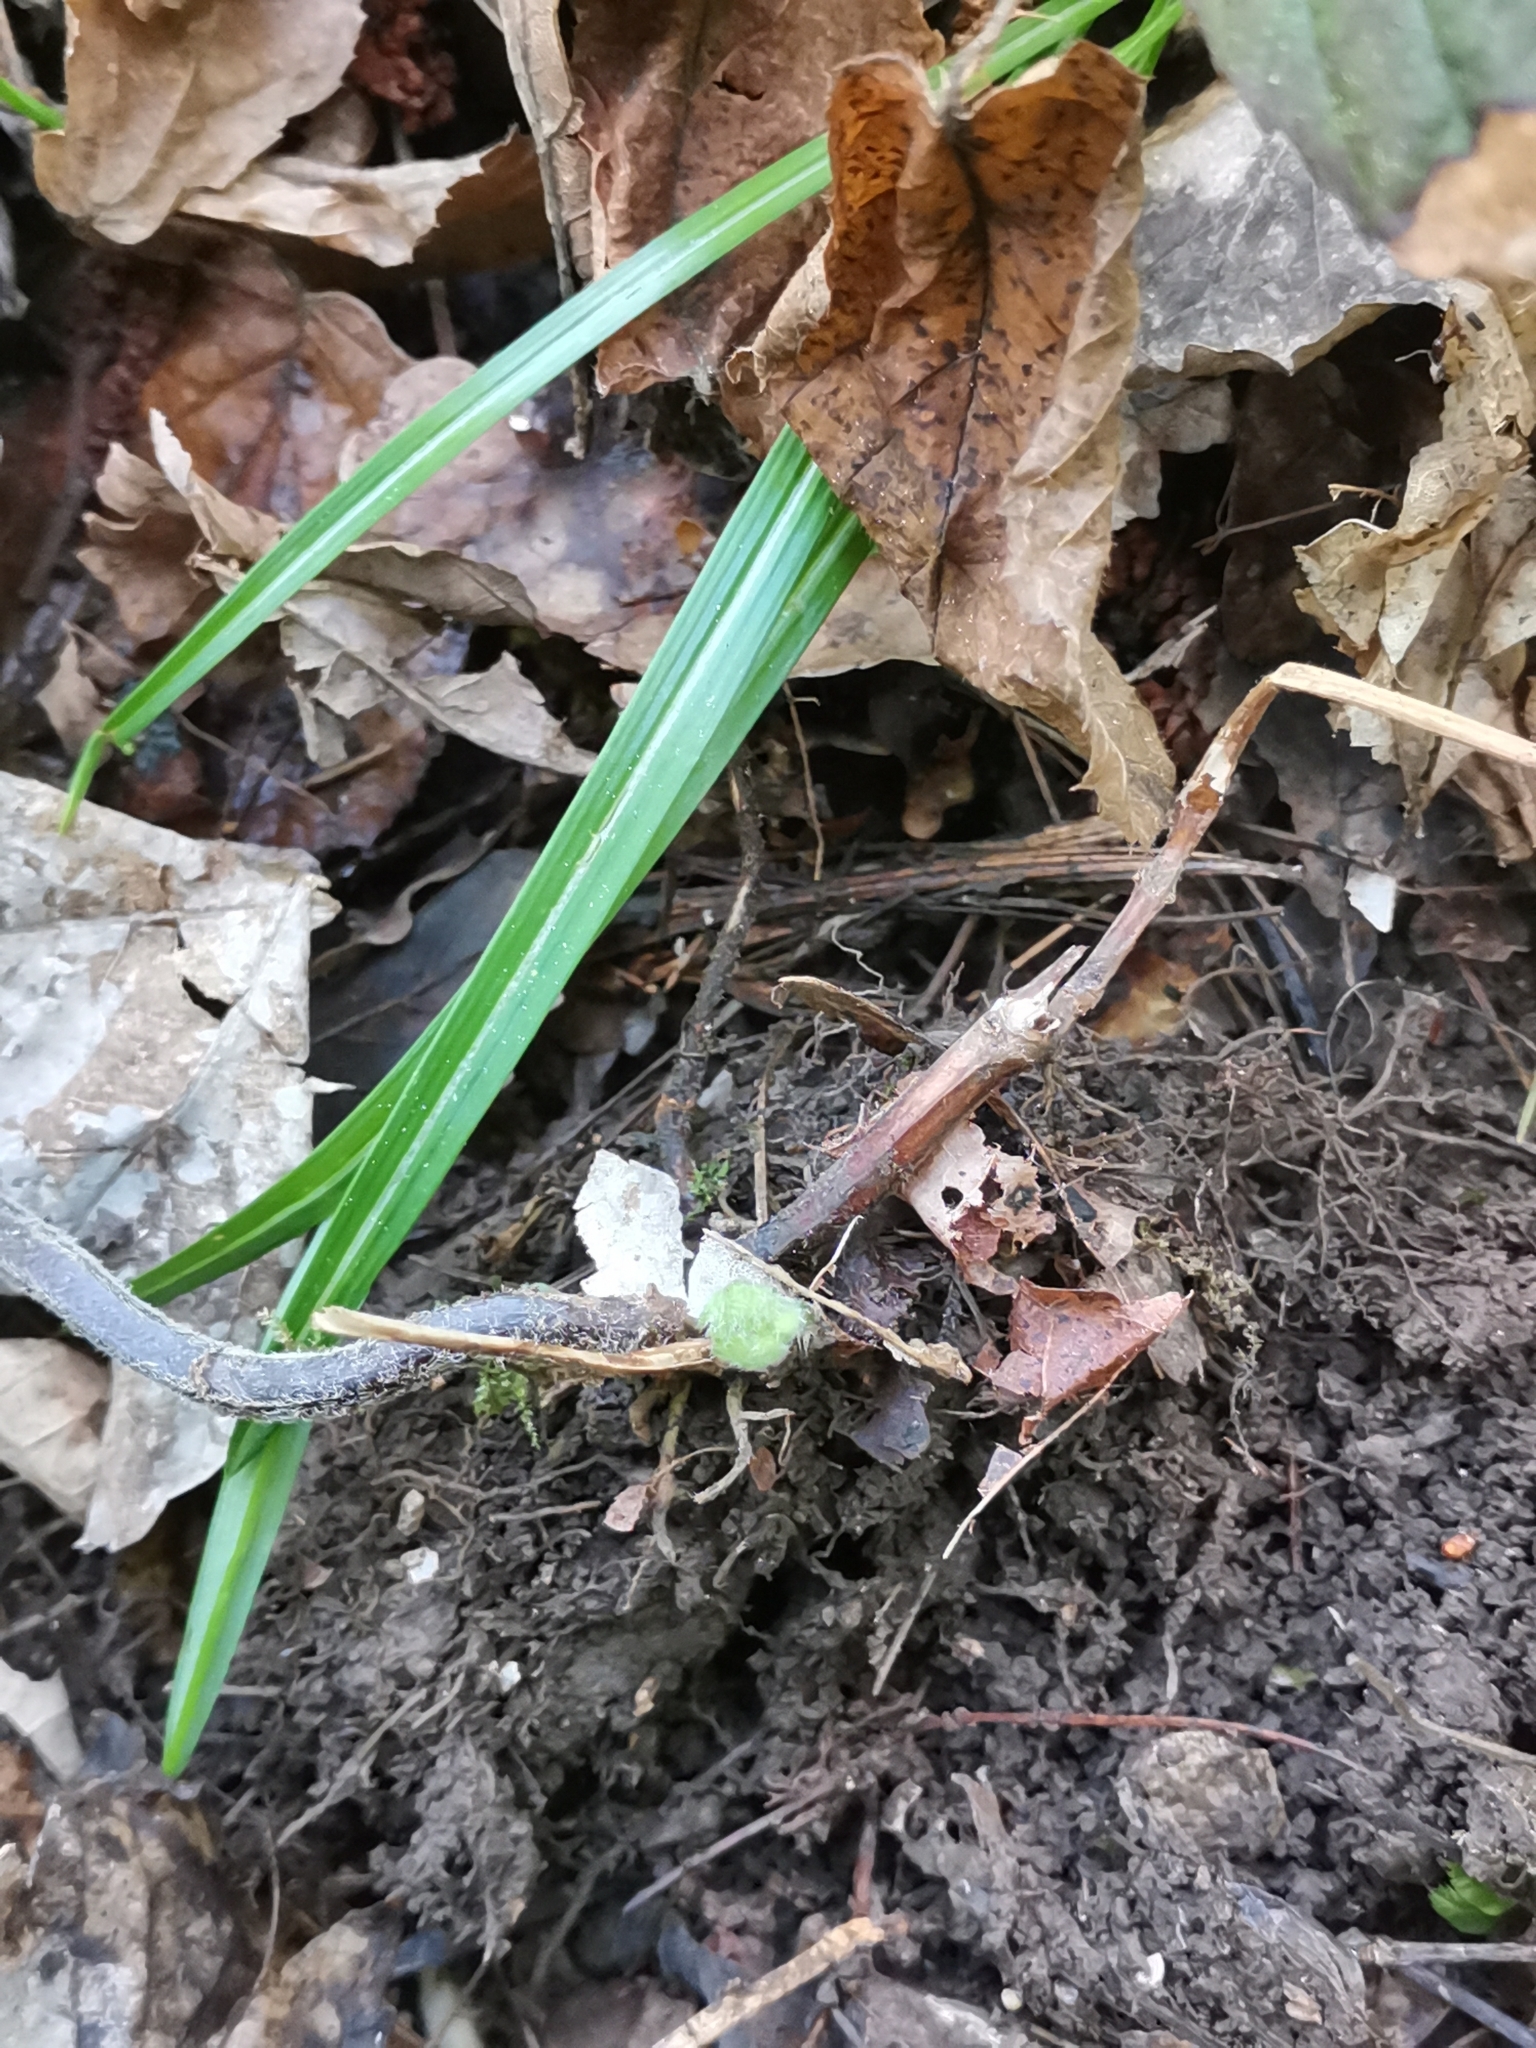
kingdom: Plantae
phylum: Tracheophyta
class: Magnoliopsida
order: Lamiales
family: Lamiaceae
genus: Lamium
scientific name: Lamium galeobdolon
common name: Yellow archangel
